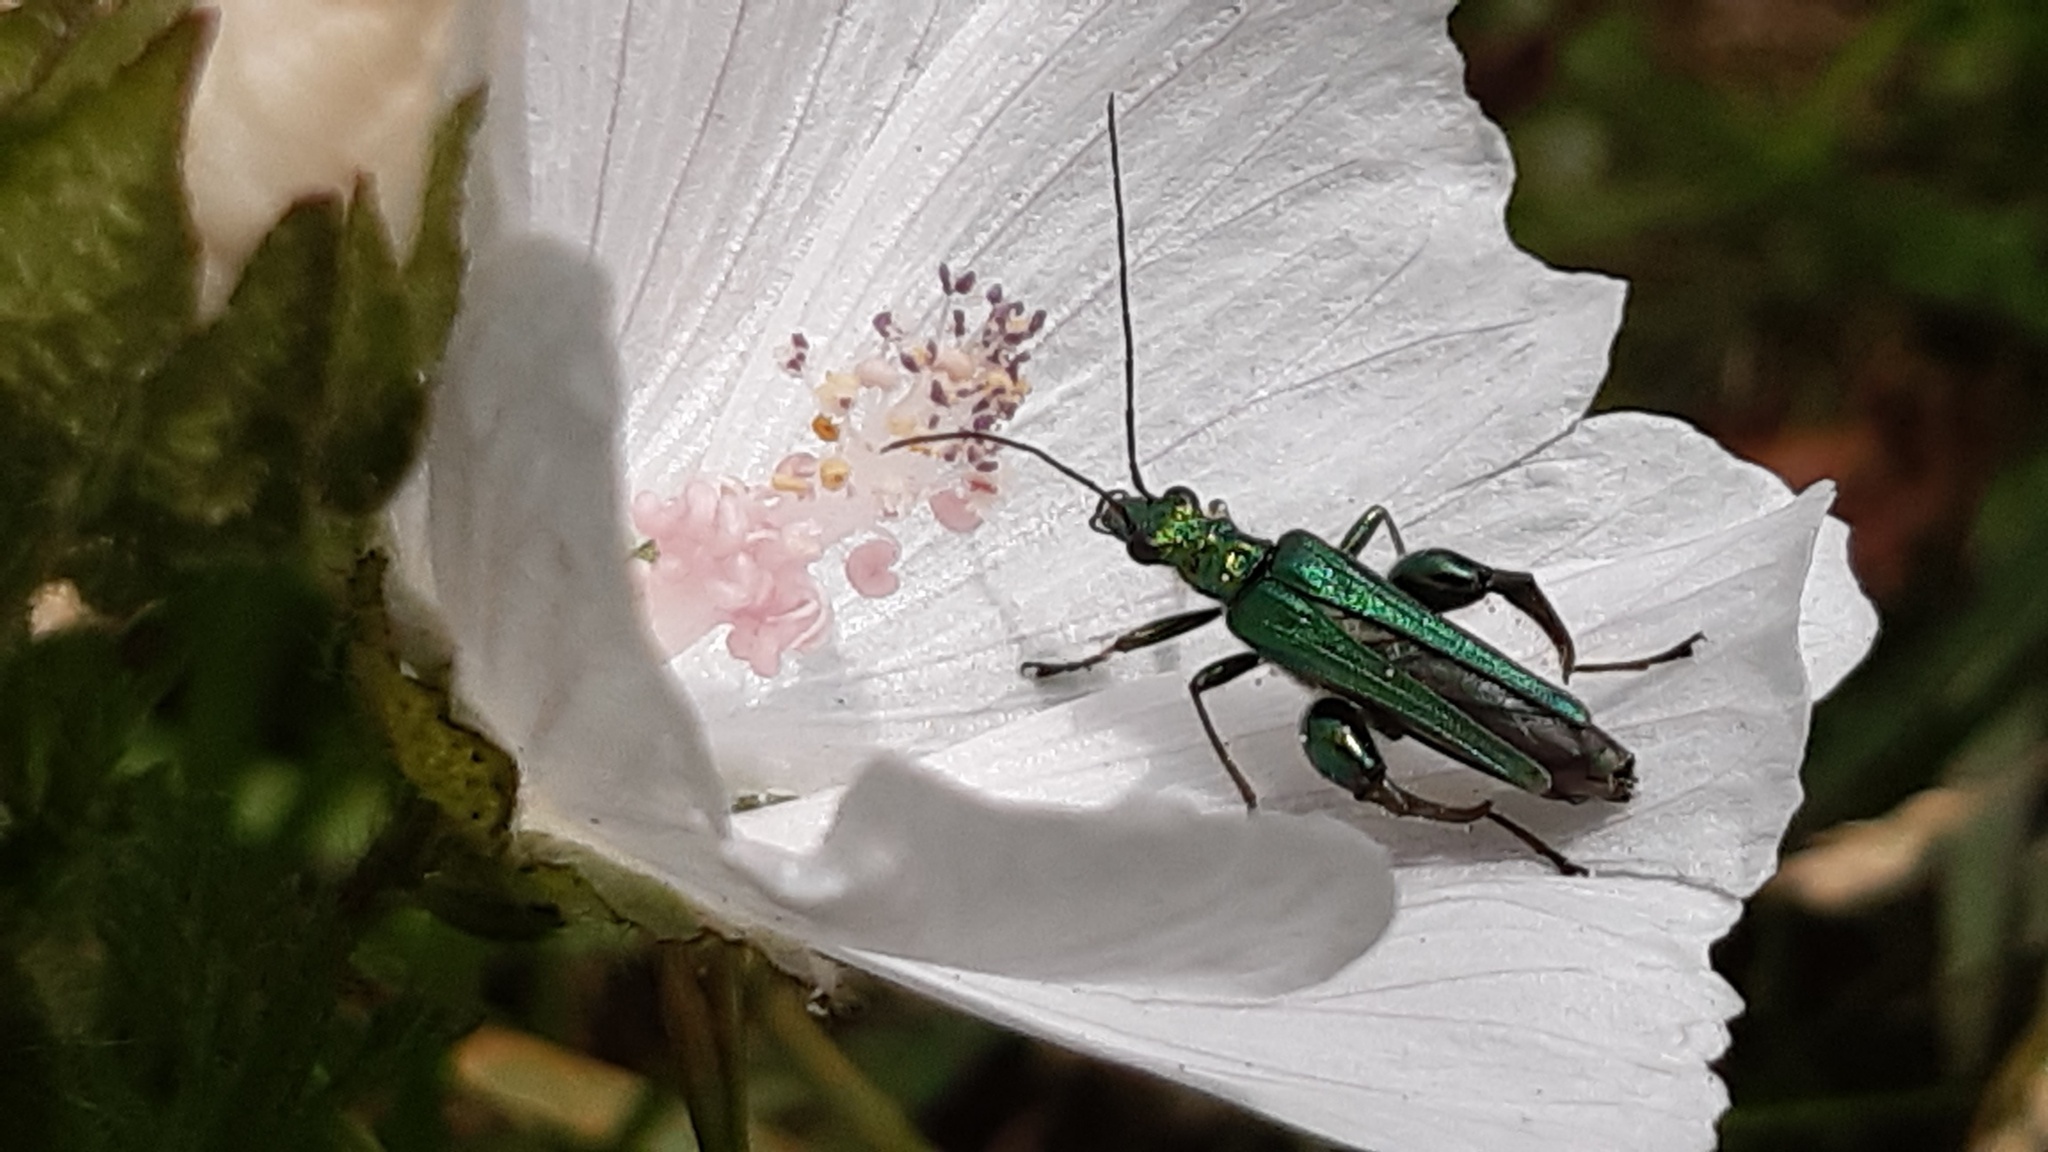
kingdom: Animalia
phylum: Arthropoda
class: Insecta
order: Coleoptera
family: Oedemeridae
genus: Oedemera
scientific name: Oedemera nobilis
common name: Swollen-thighed beetle
